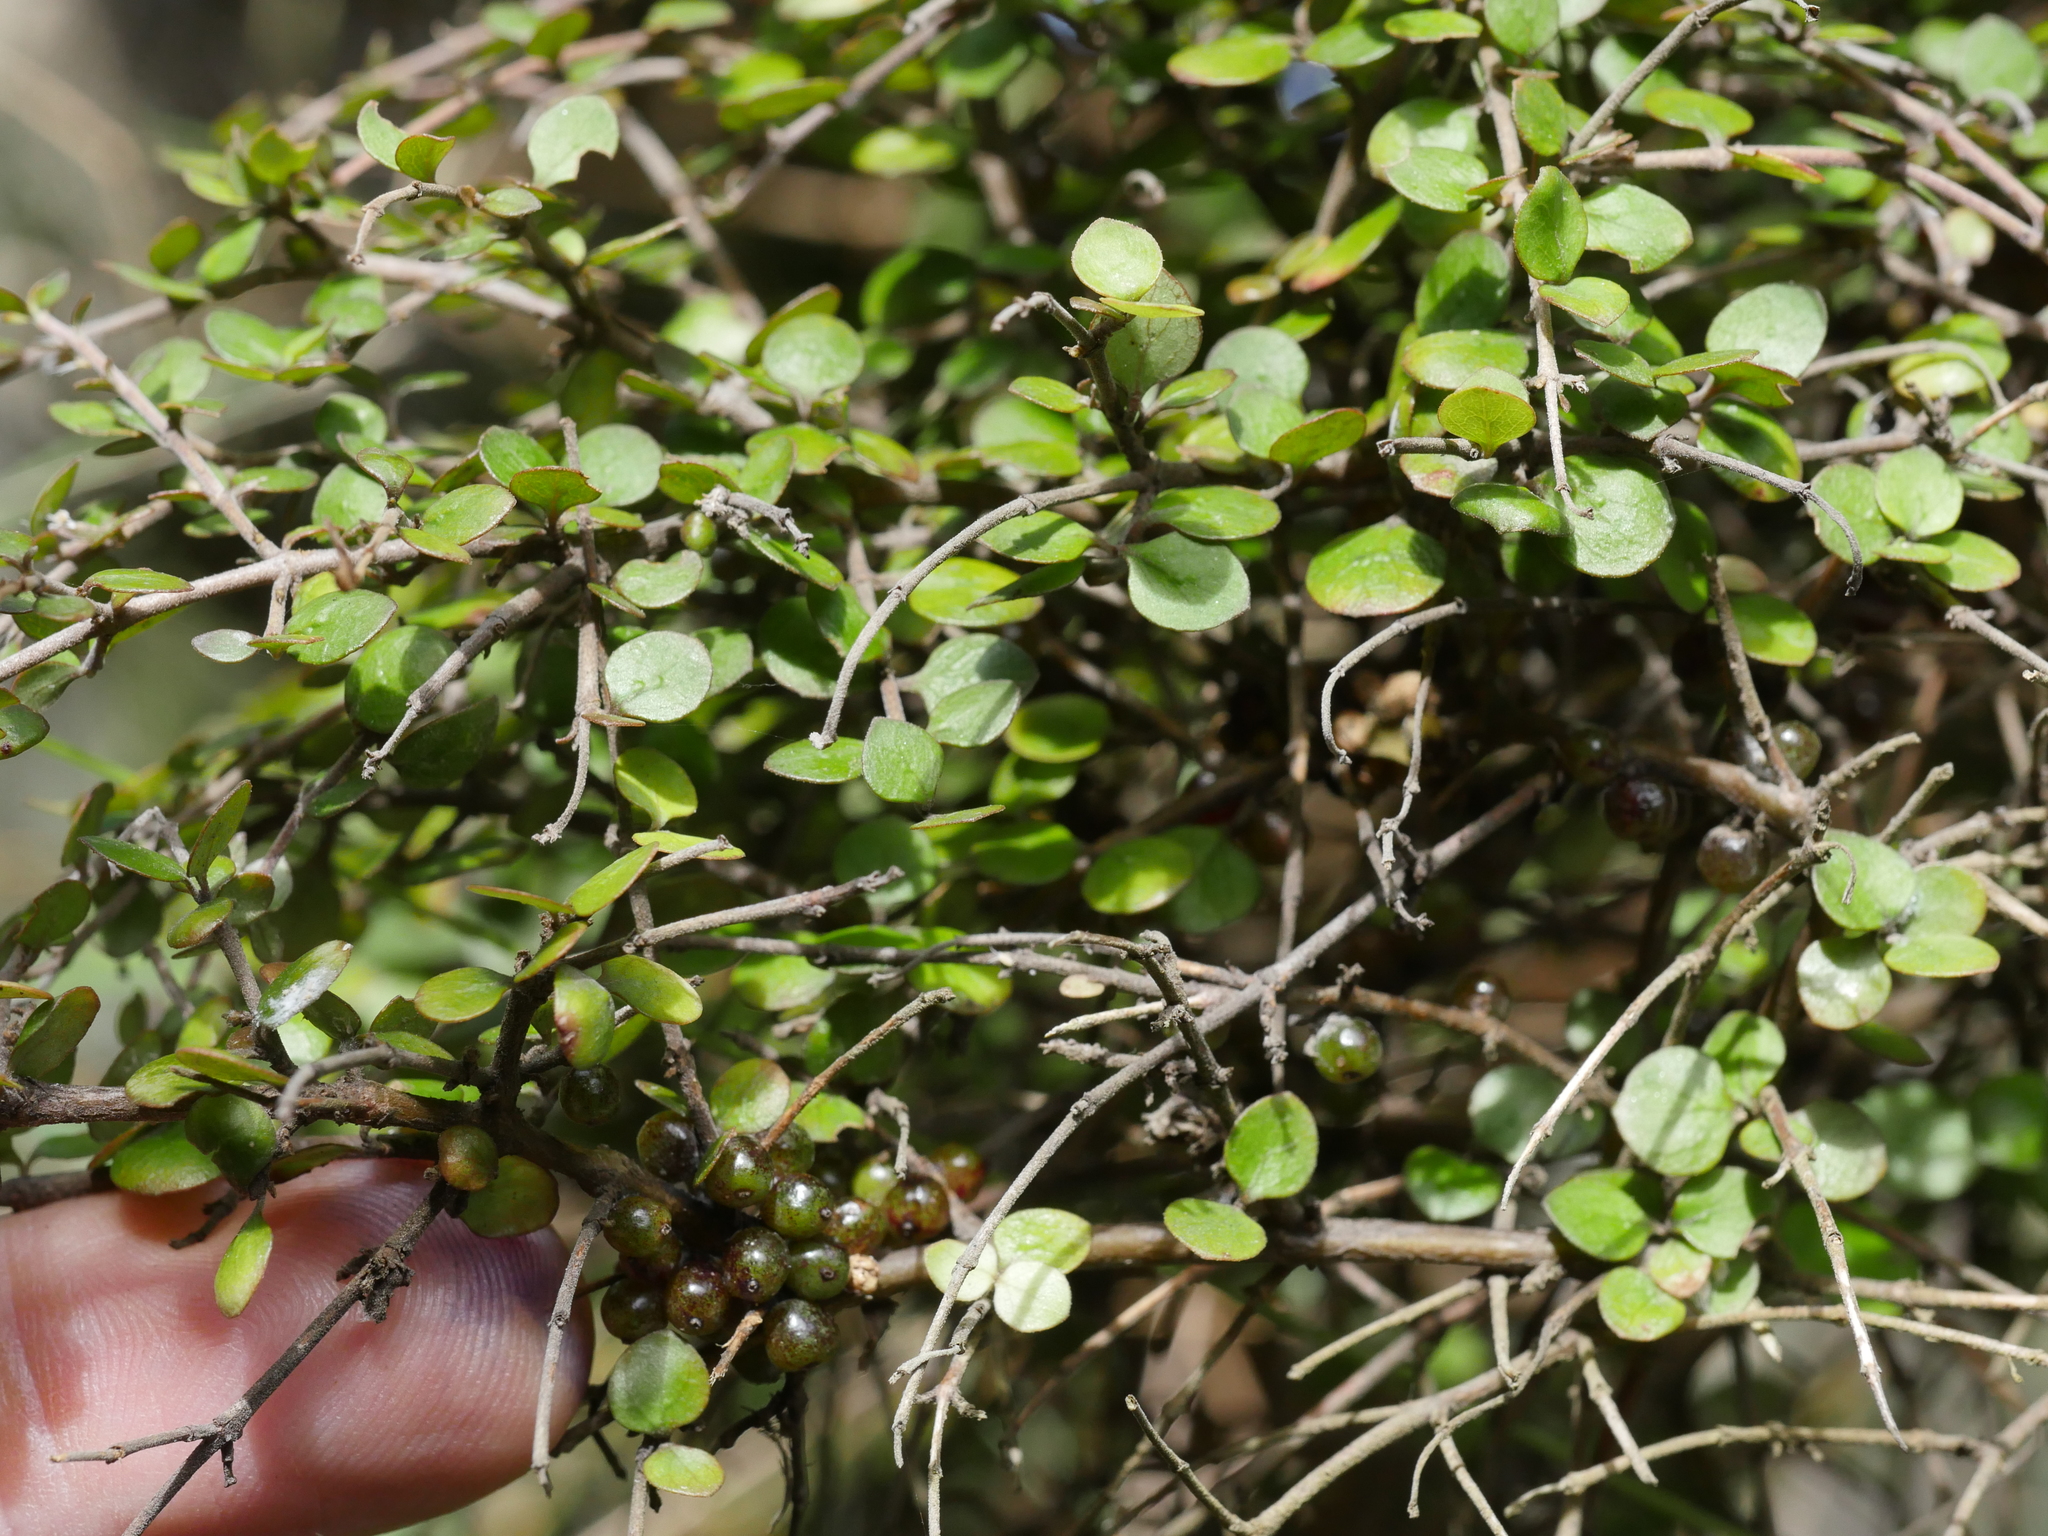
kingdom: Plantae
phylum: Tracheophyta
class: Magnoliopsida
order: Gentianales
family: Rubiaceae
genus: Coprosma
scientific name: Coprosma rhamnoides
